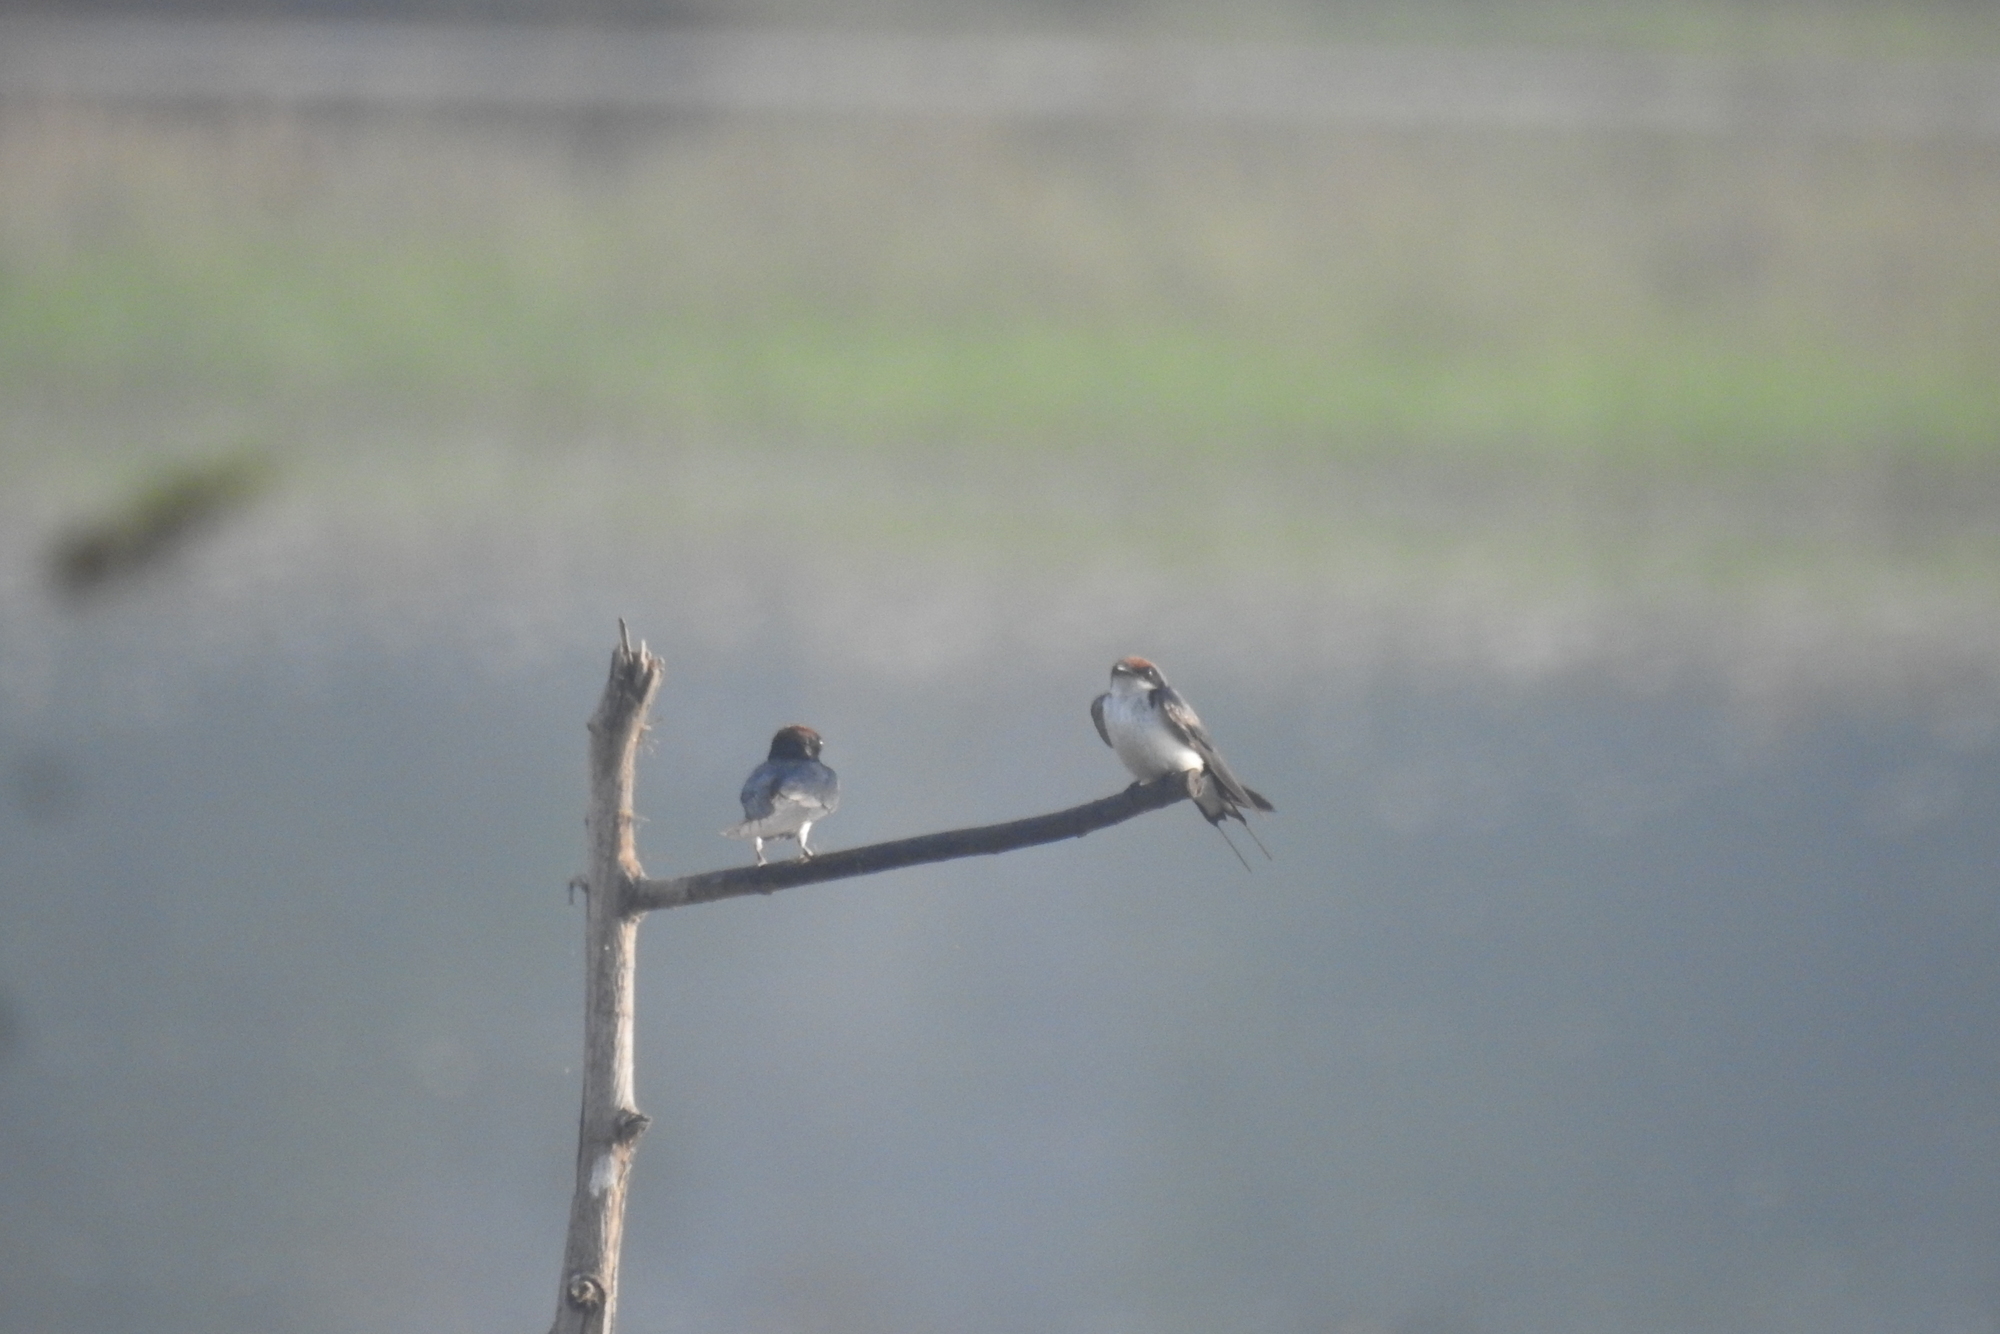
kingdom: Animalia
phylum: Chordata
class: Aves
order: Passeriformes
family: Hirundinidae
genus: Hirundo
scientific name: Hirundo smithii
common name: Wire-tailed swallow
